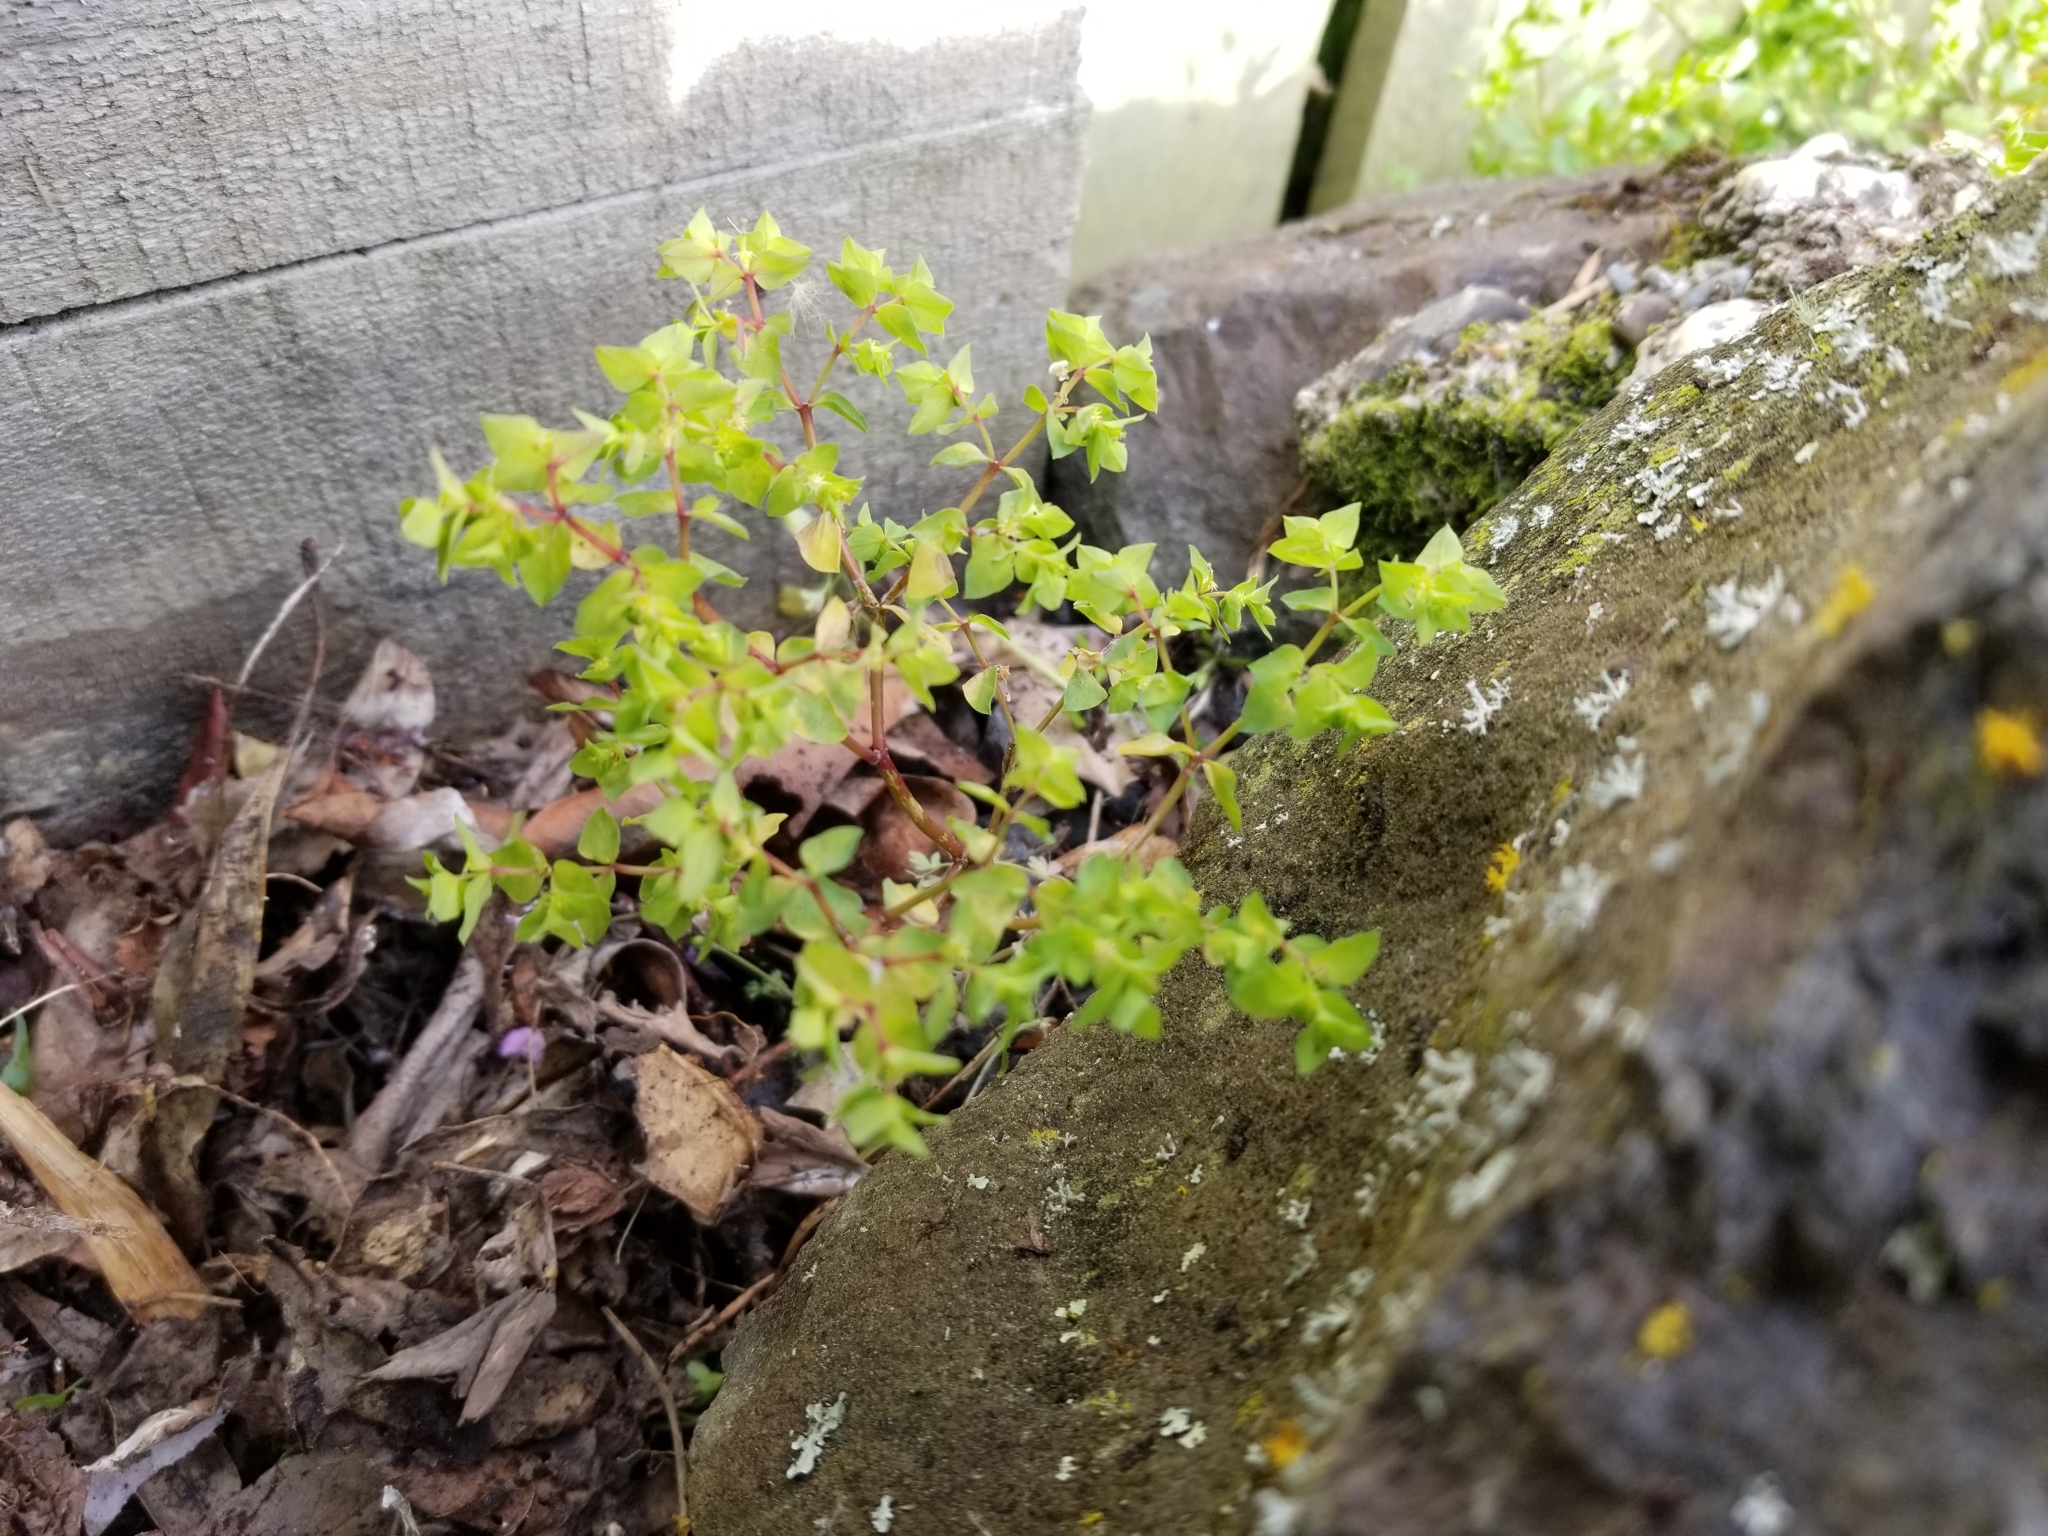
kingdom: Plantae
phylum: Tracheophyta
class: Magnoliopsida
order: Malpighiales
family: Euphorbiaceae
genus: Euphorbia
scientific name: Euphorbia peplus
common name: Petty spurge
